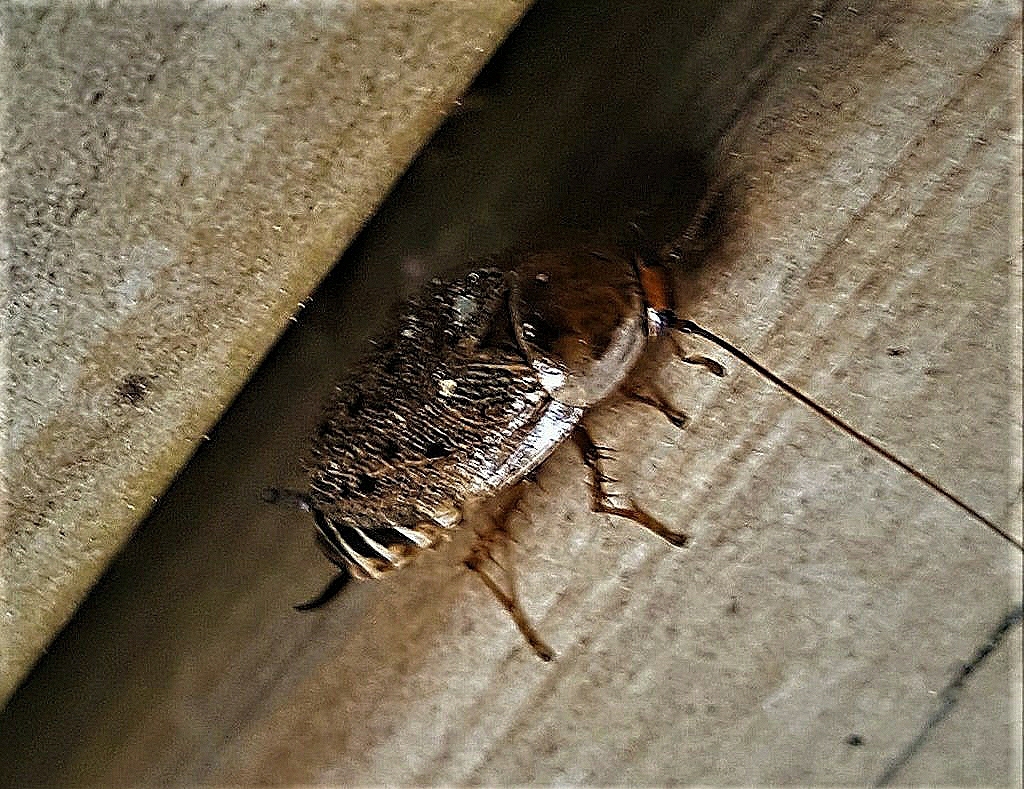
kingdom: Animalia
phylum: Arthropoda
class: Insecta
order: Blattodea
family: Ectobiidae
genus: Ectobius
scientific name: Ectobius lapponicus
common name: Dusky cockroach
